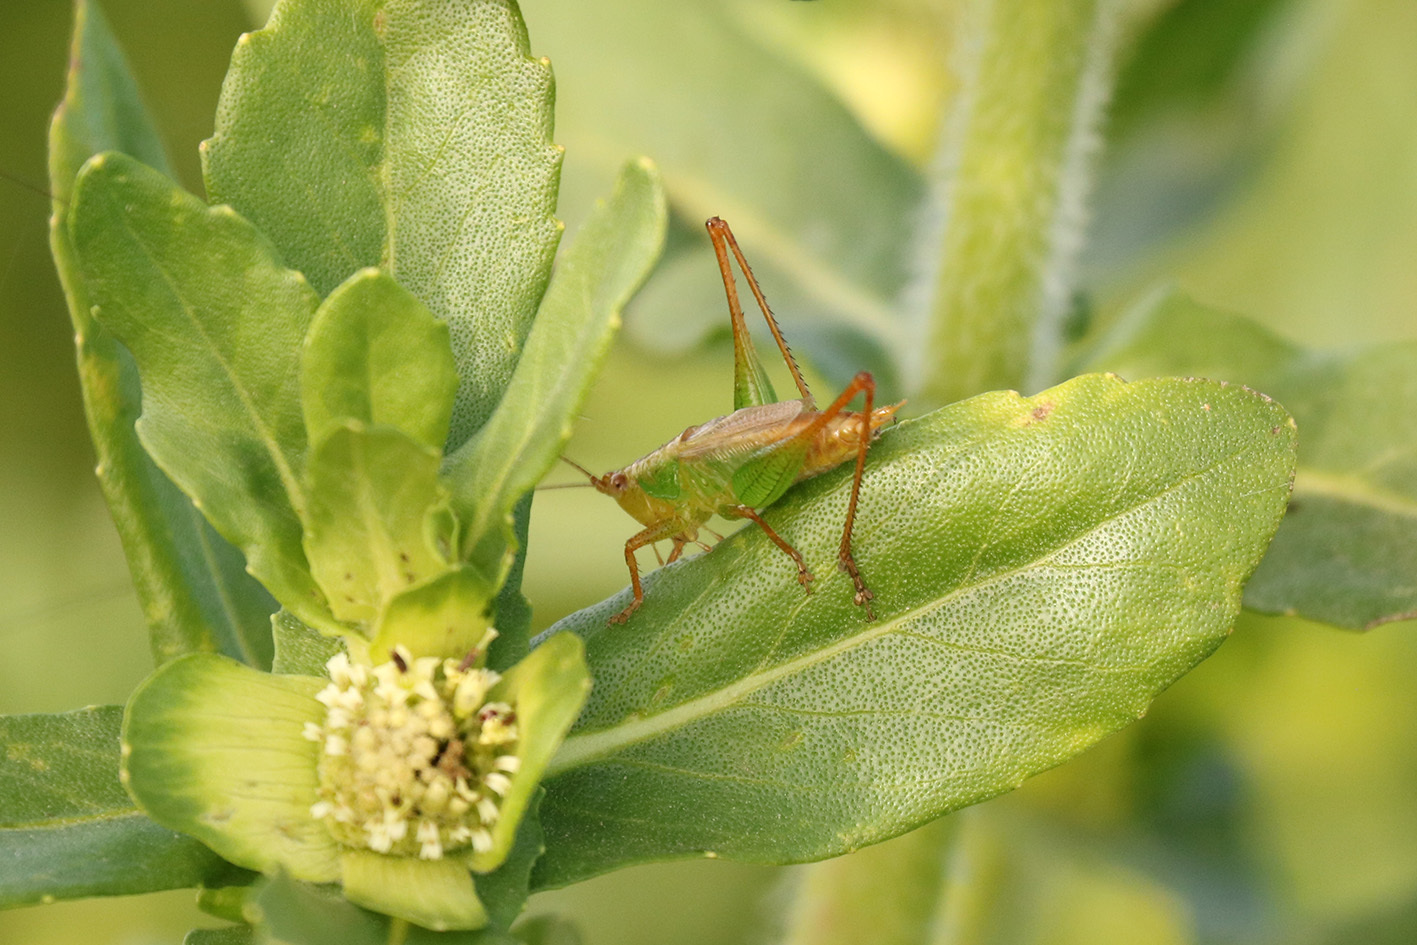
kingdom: Animalia
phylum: Arthropoda
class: Insecta
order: Orthoptera
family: Tettigoniidae
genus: Conocephalus
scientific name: Conocephalus cinnamonifrons
